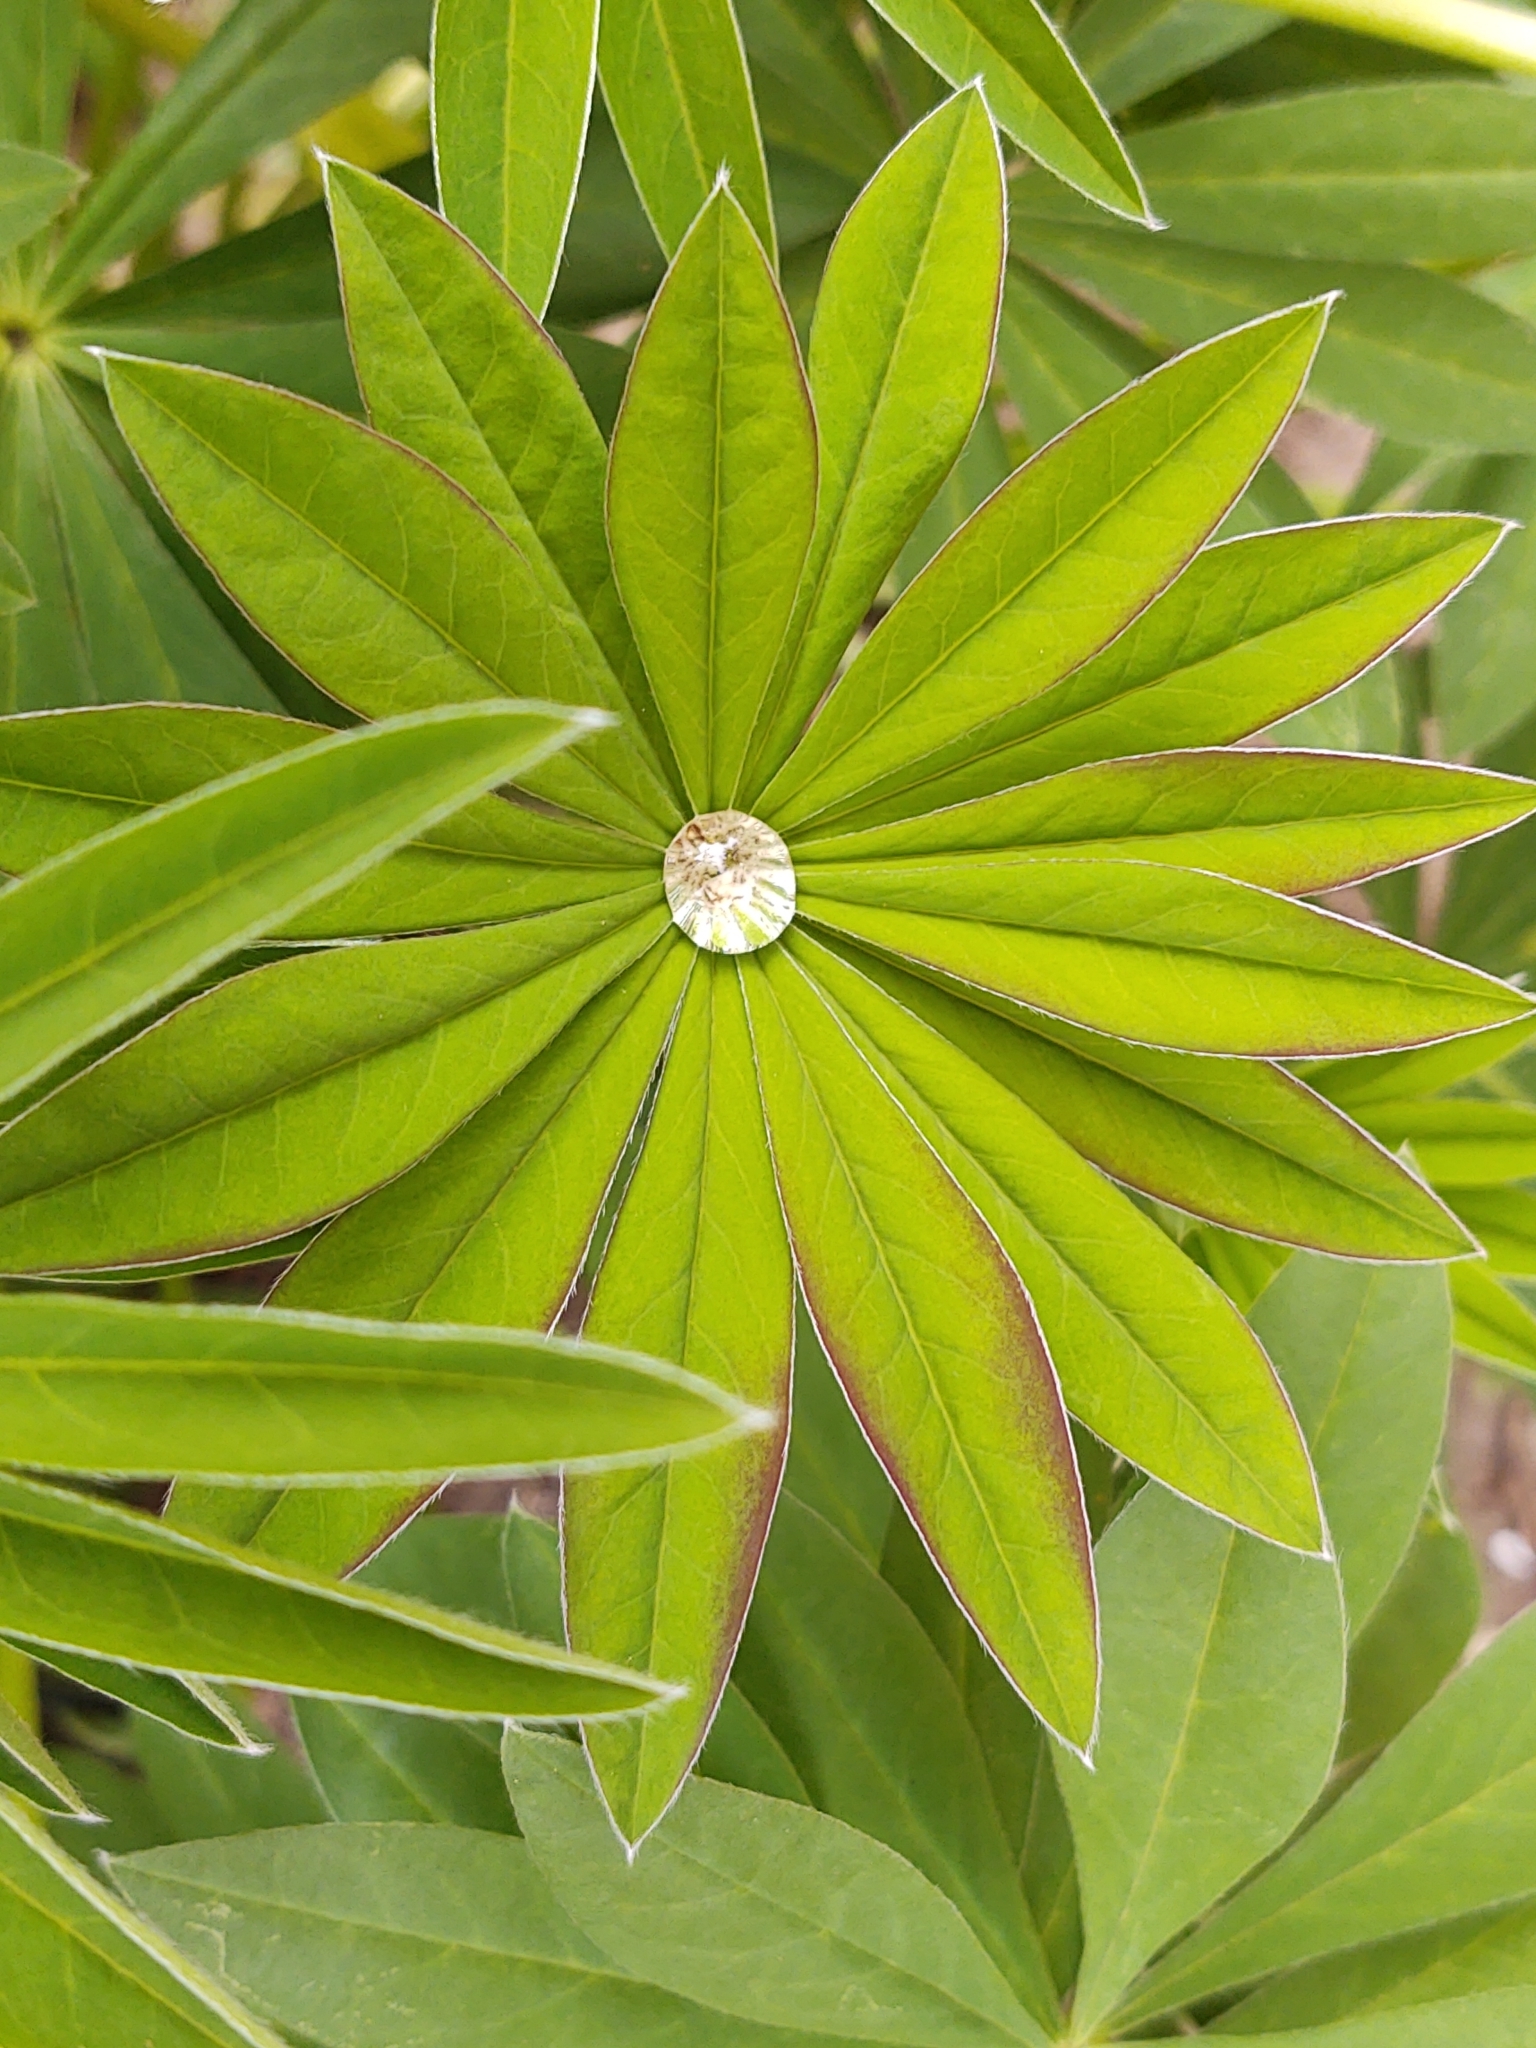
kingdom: Plantae
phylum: Tracheophyta
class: Magnoliopsida
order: Fabales
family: Fabaceae
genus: Lupinus
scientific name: Lupinus polyphyllus
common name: Garden lupin
